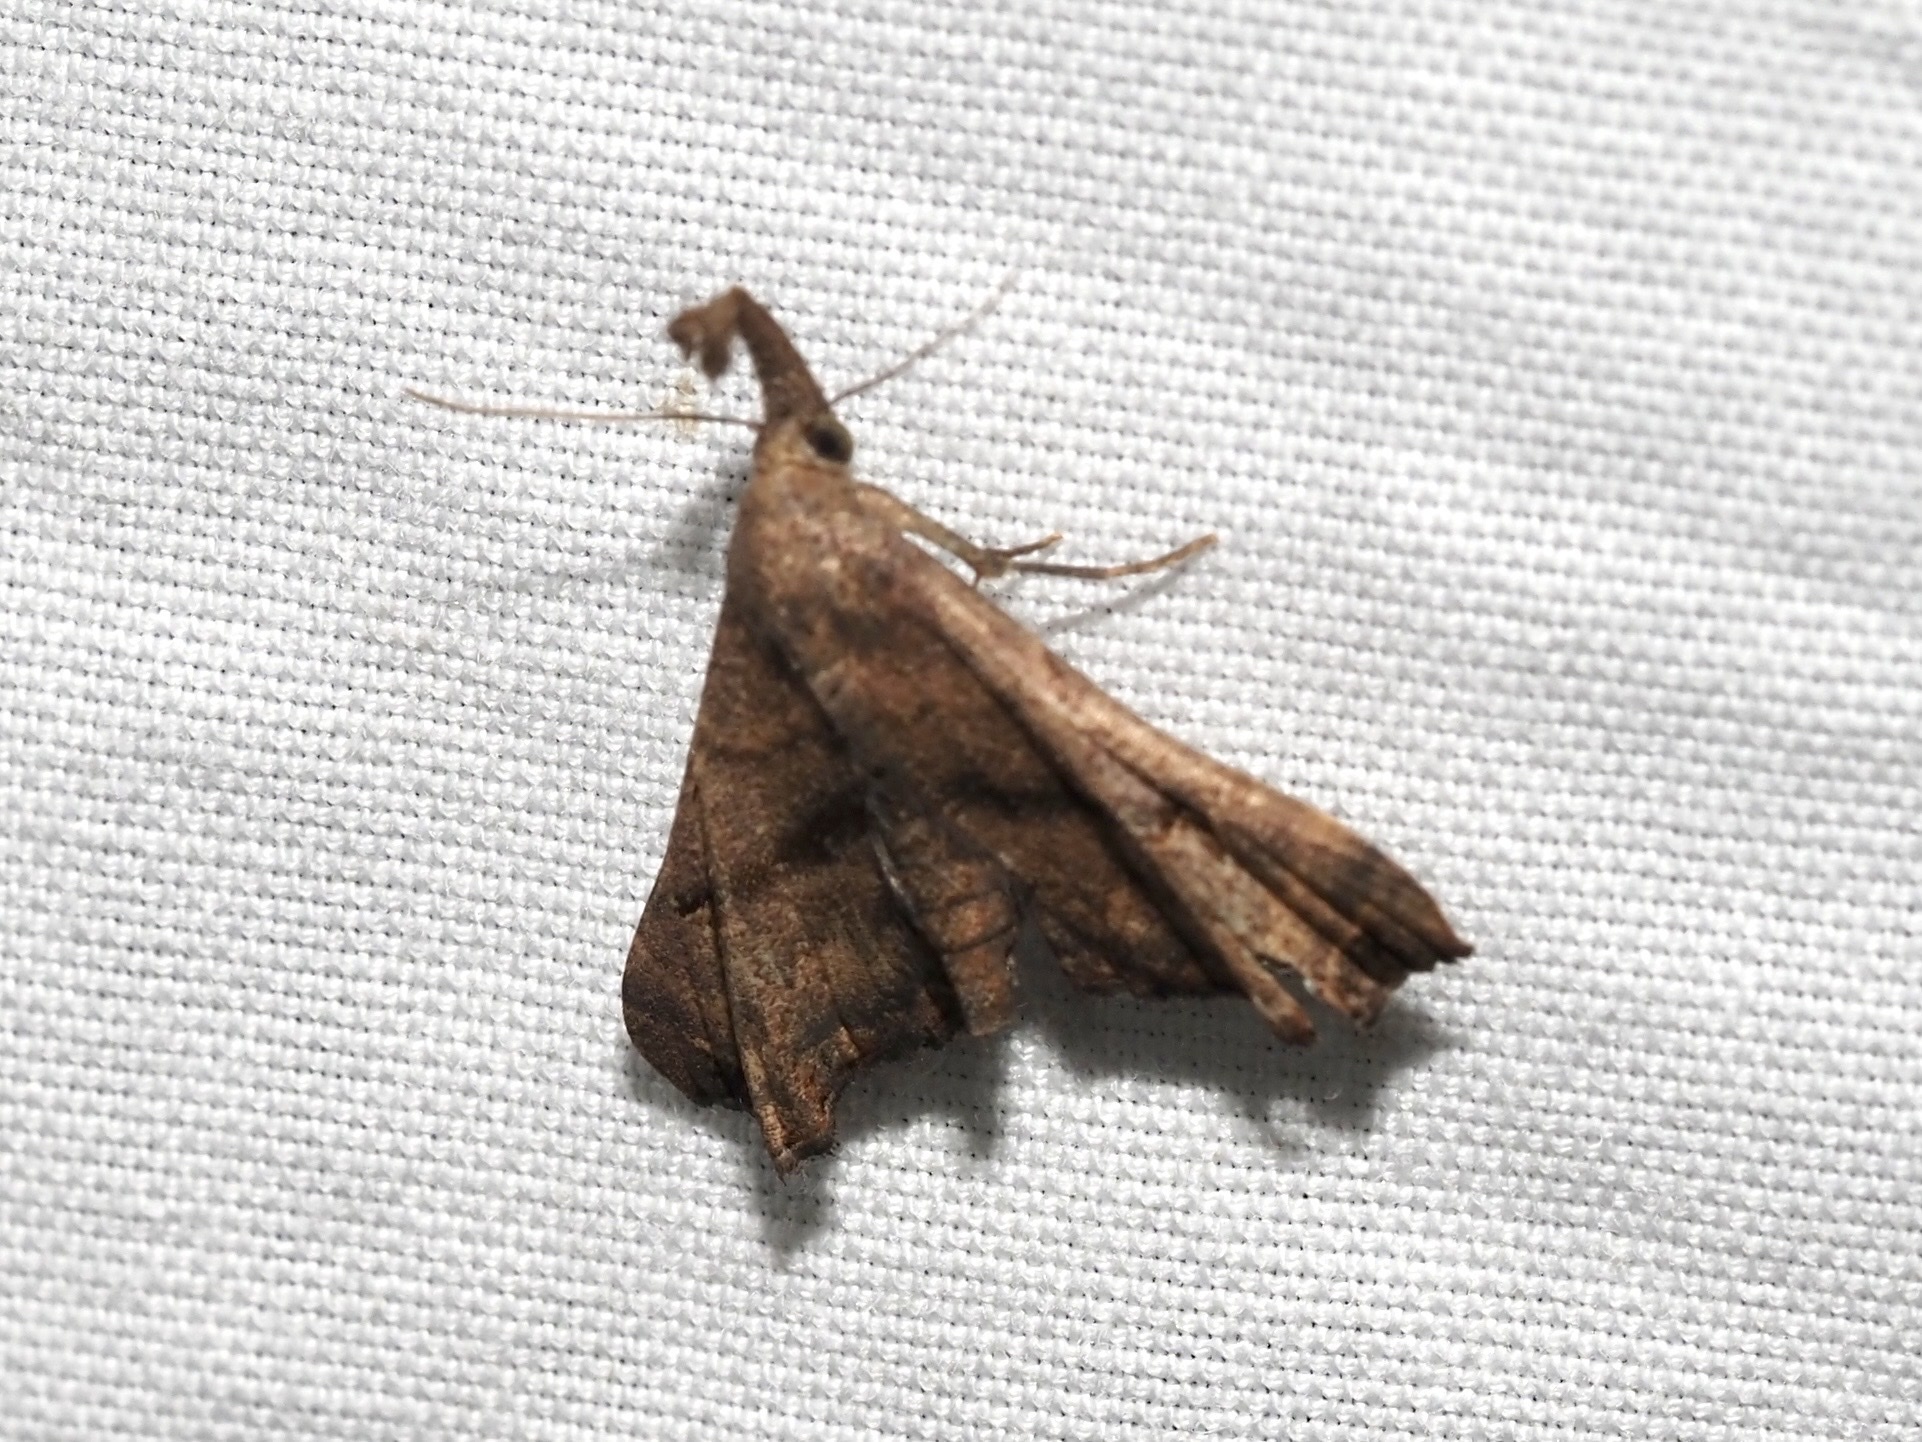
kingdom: Animalia
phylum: Arthropoda
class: Insecta
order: Lepidoptera
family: Erebidae
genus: Palthis
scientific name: Palthis asopialis
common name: Faint-spotted palthis moth
